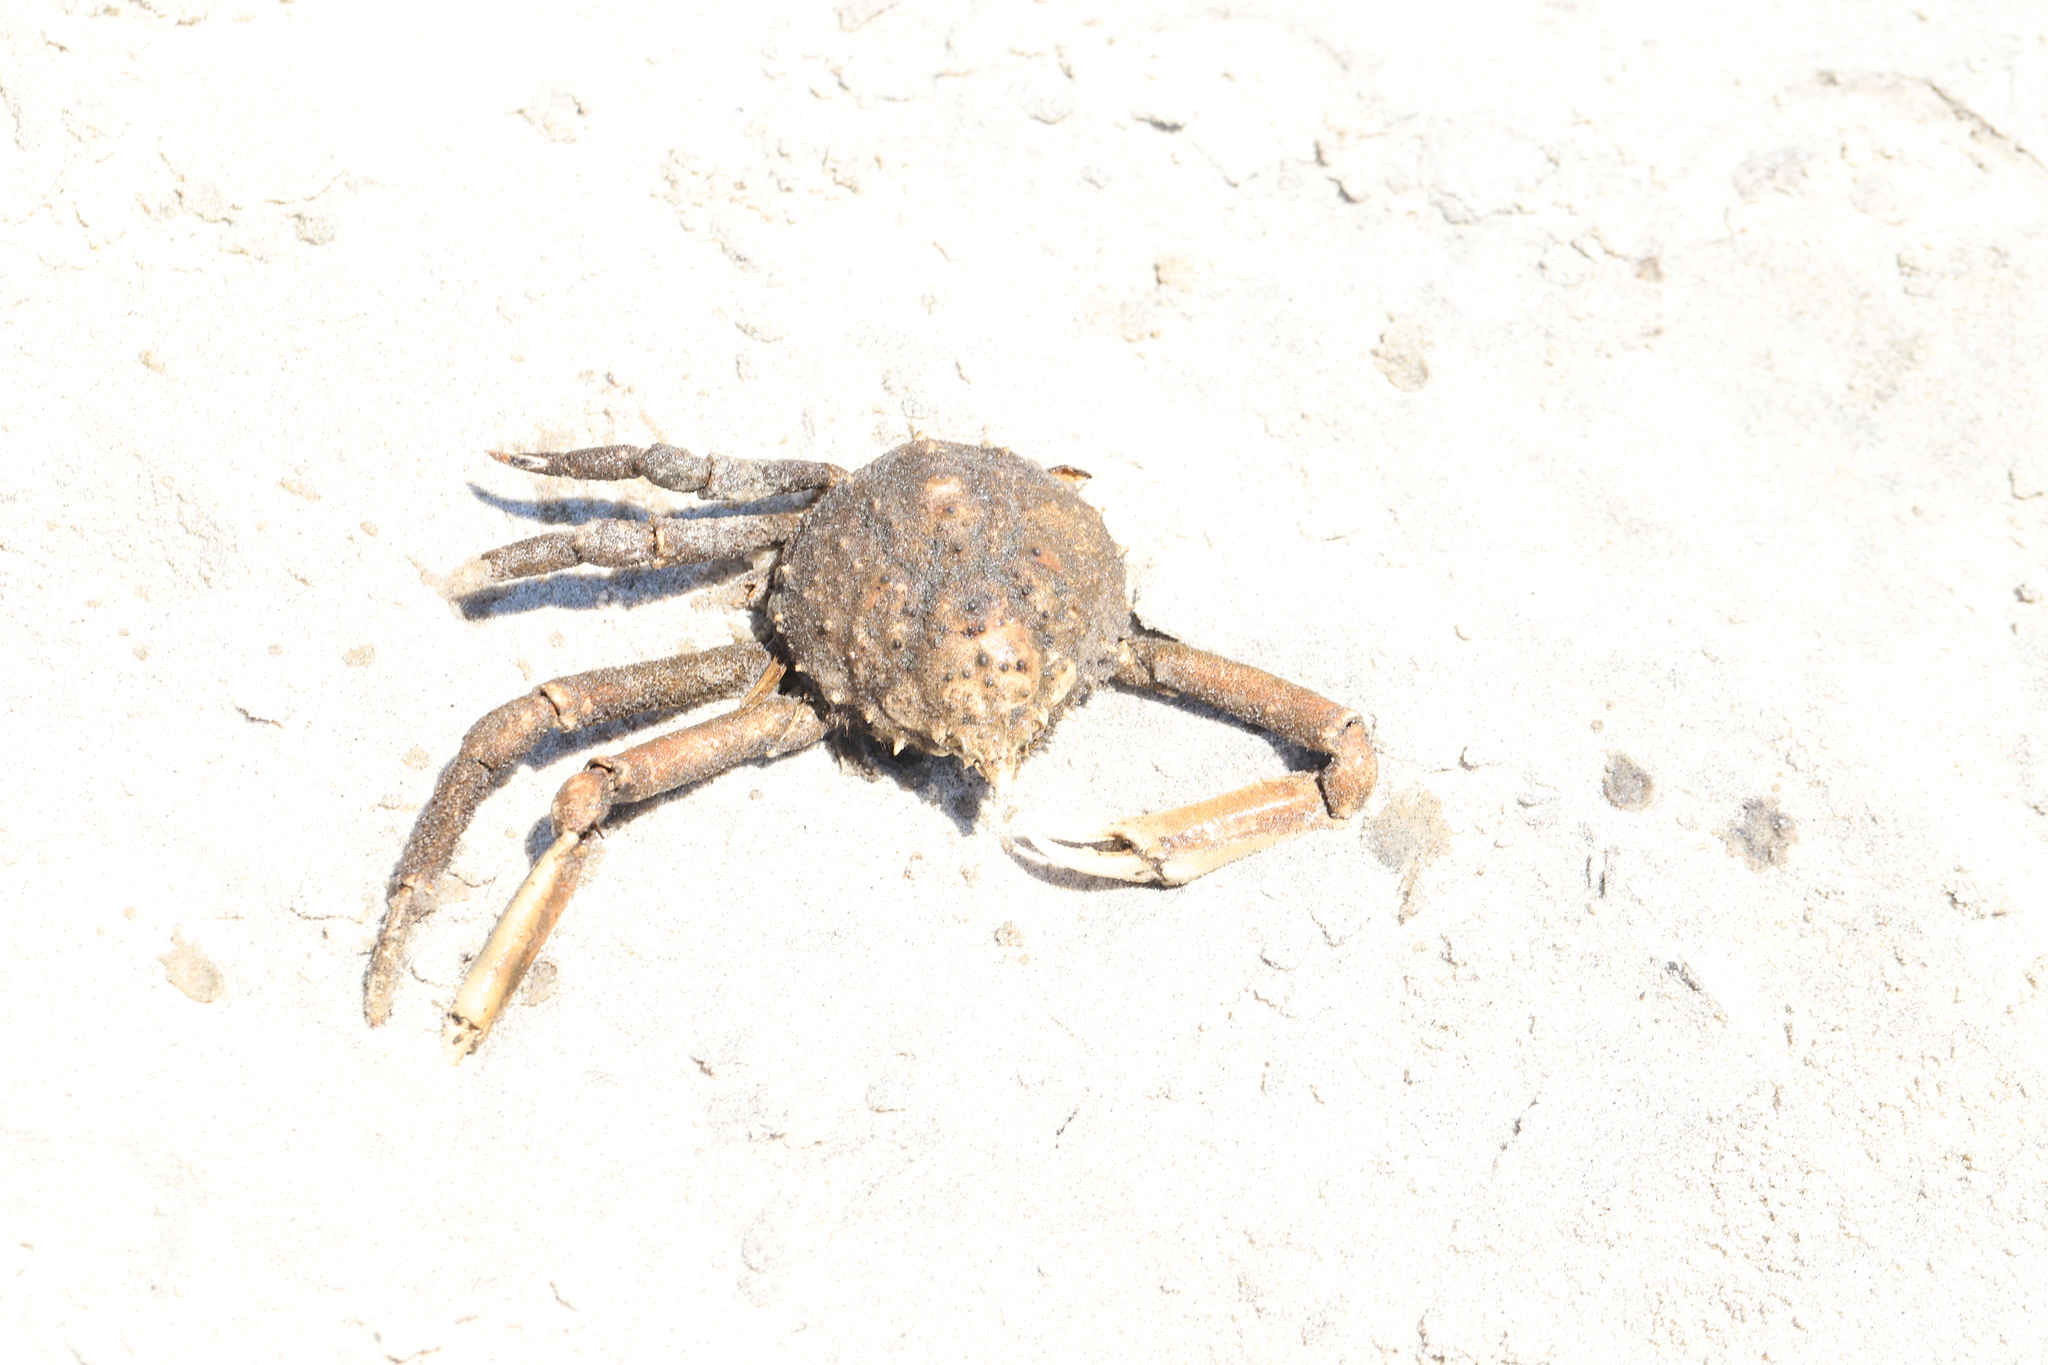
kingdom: Animalia
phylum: Arthropoda
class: Malacostraca
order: Decapoda
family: Epialtidae
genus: Libinia
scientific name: Libinia emarginata
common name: Common spider crab
